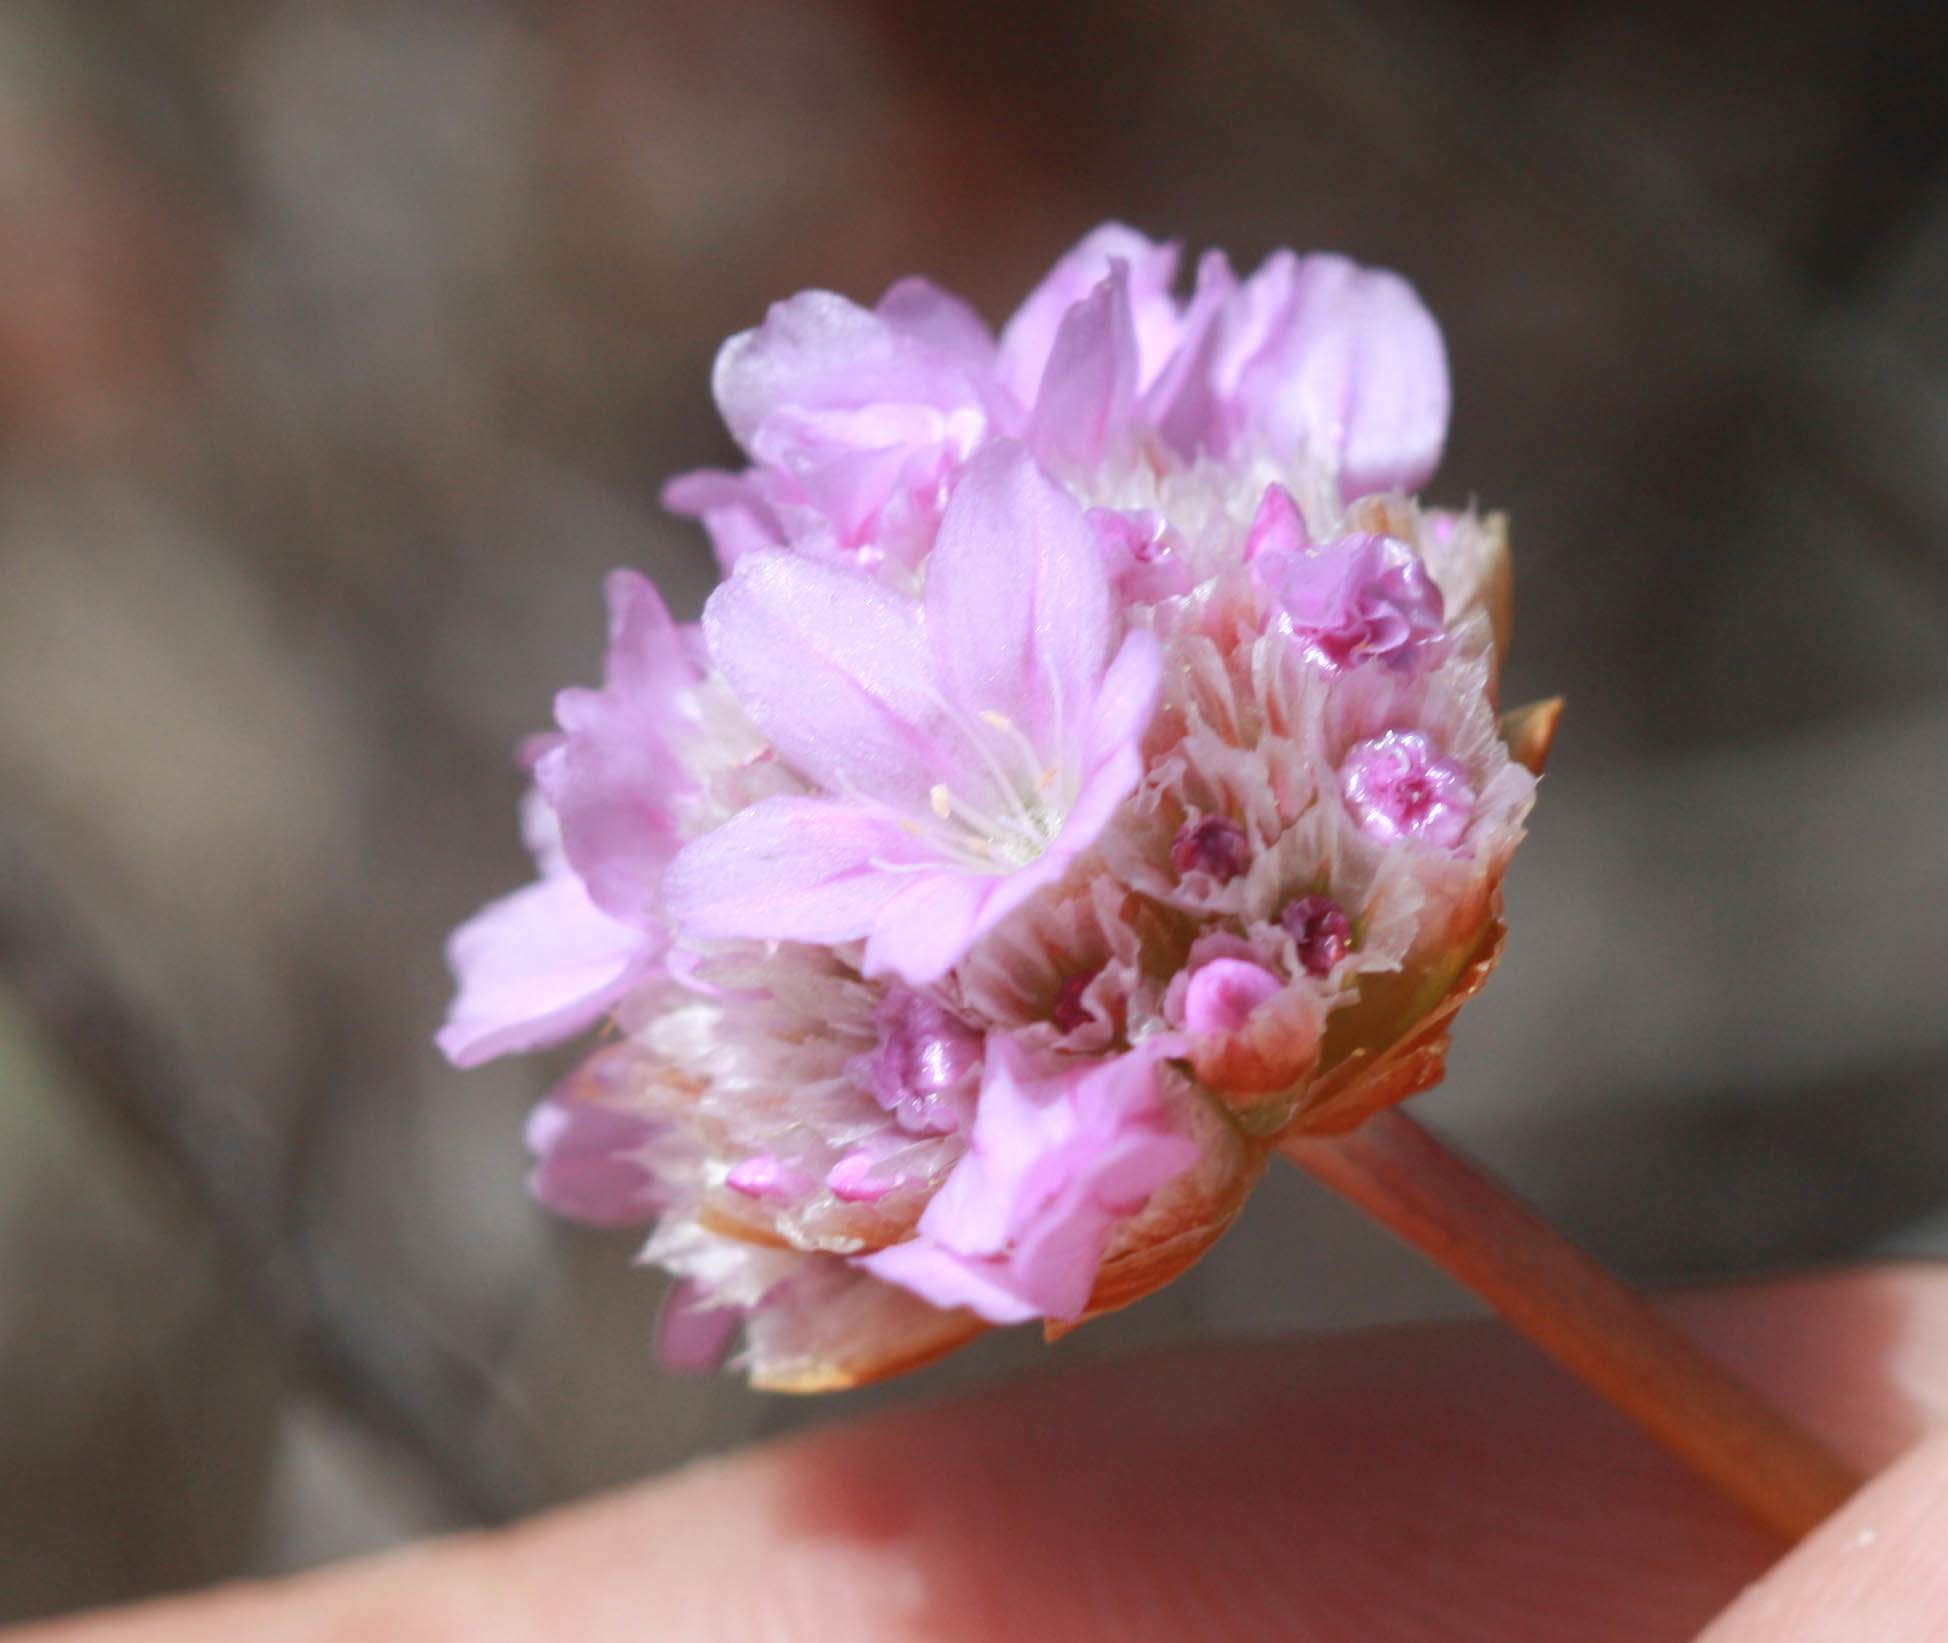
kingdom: Plantae
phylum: Tracheophyta
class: Magnoliopsida
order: Caryophyllales
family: Plumbaginaceae
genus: Armeria
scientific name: Armeria maritima
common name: Thrift
